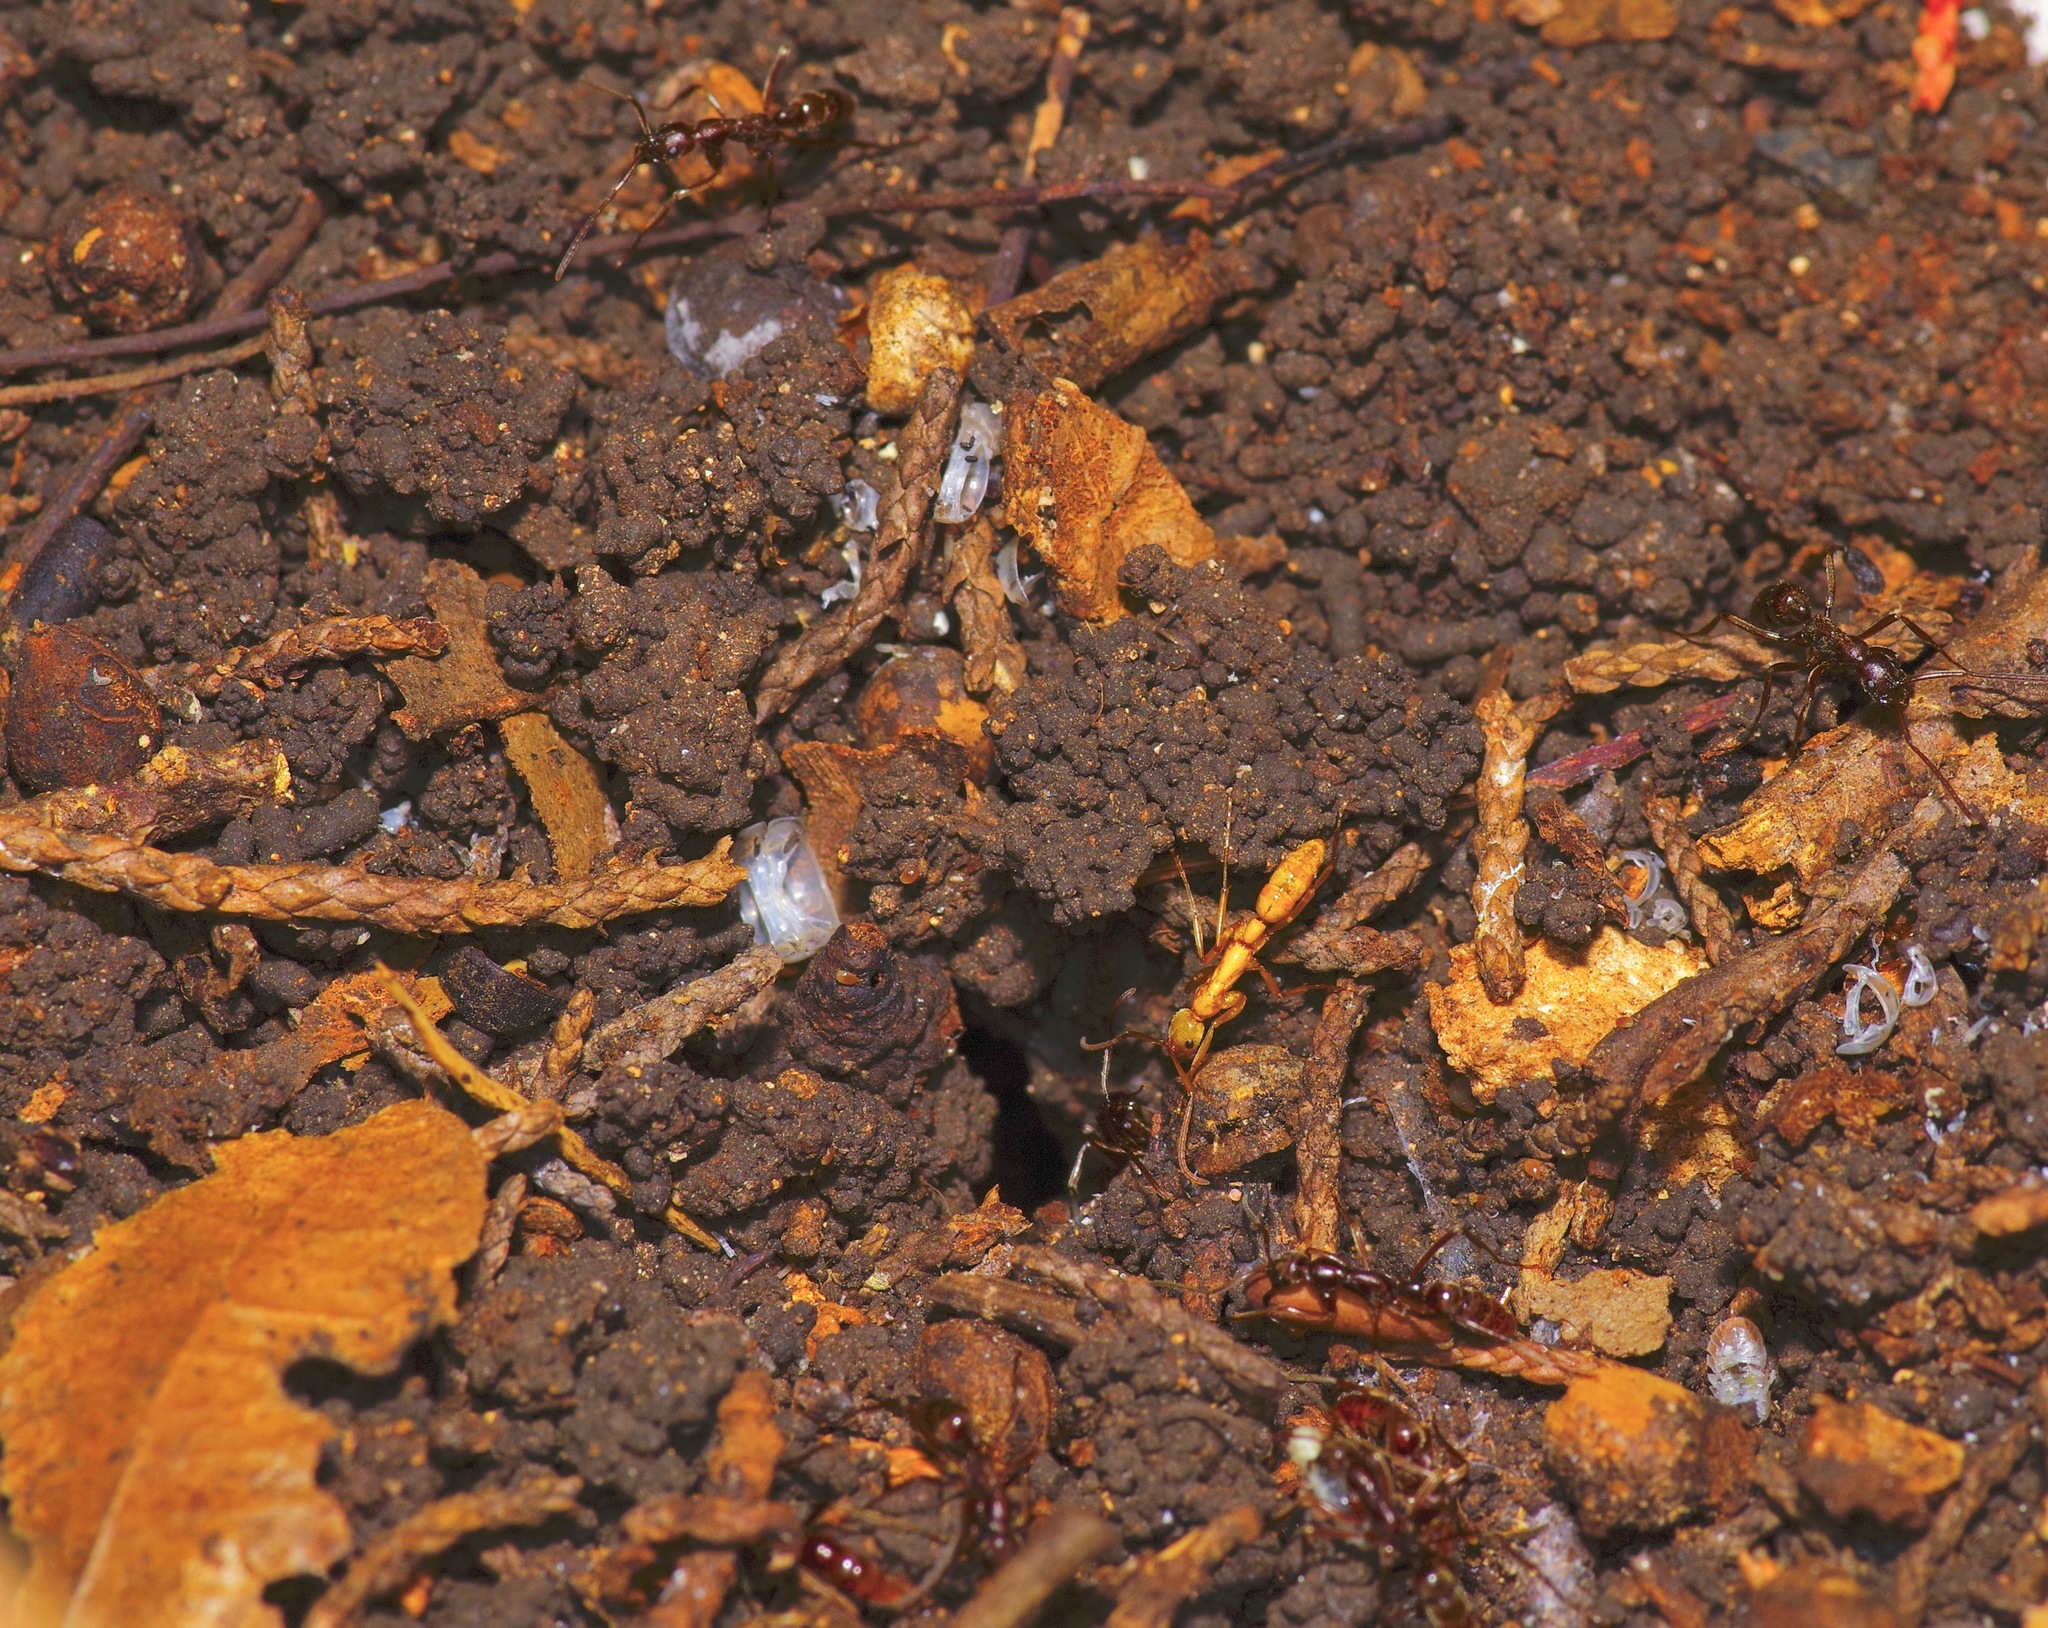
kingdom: Animalia
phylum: Arthropoda
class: Insecta
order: Hymenoptera
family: Formicidae
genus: Leptogenys
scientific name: Leptogenys elongata
